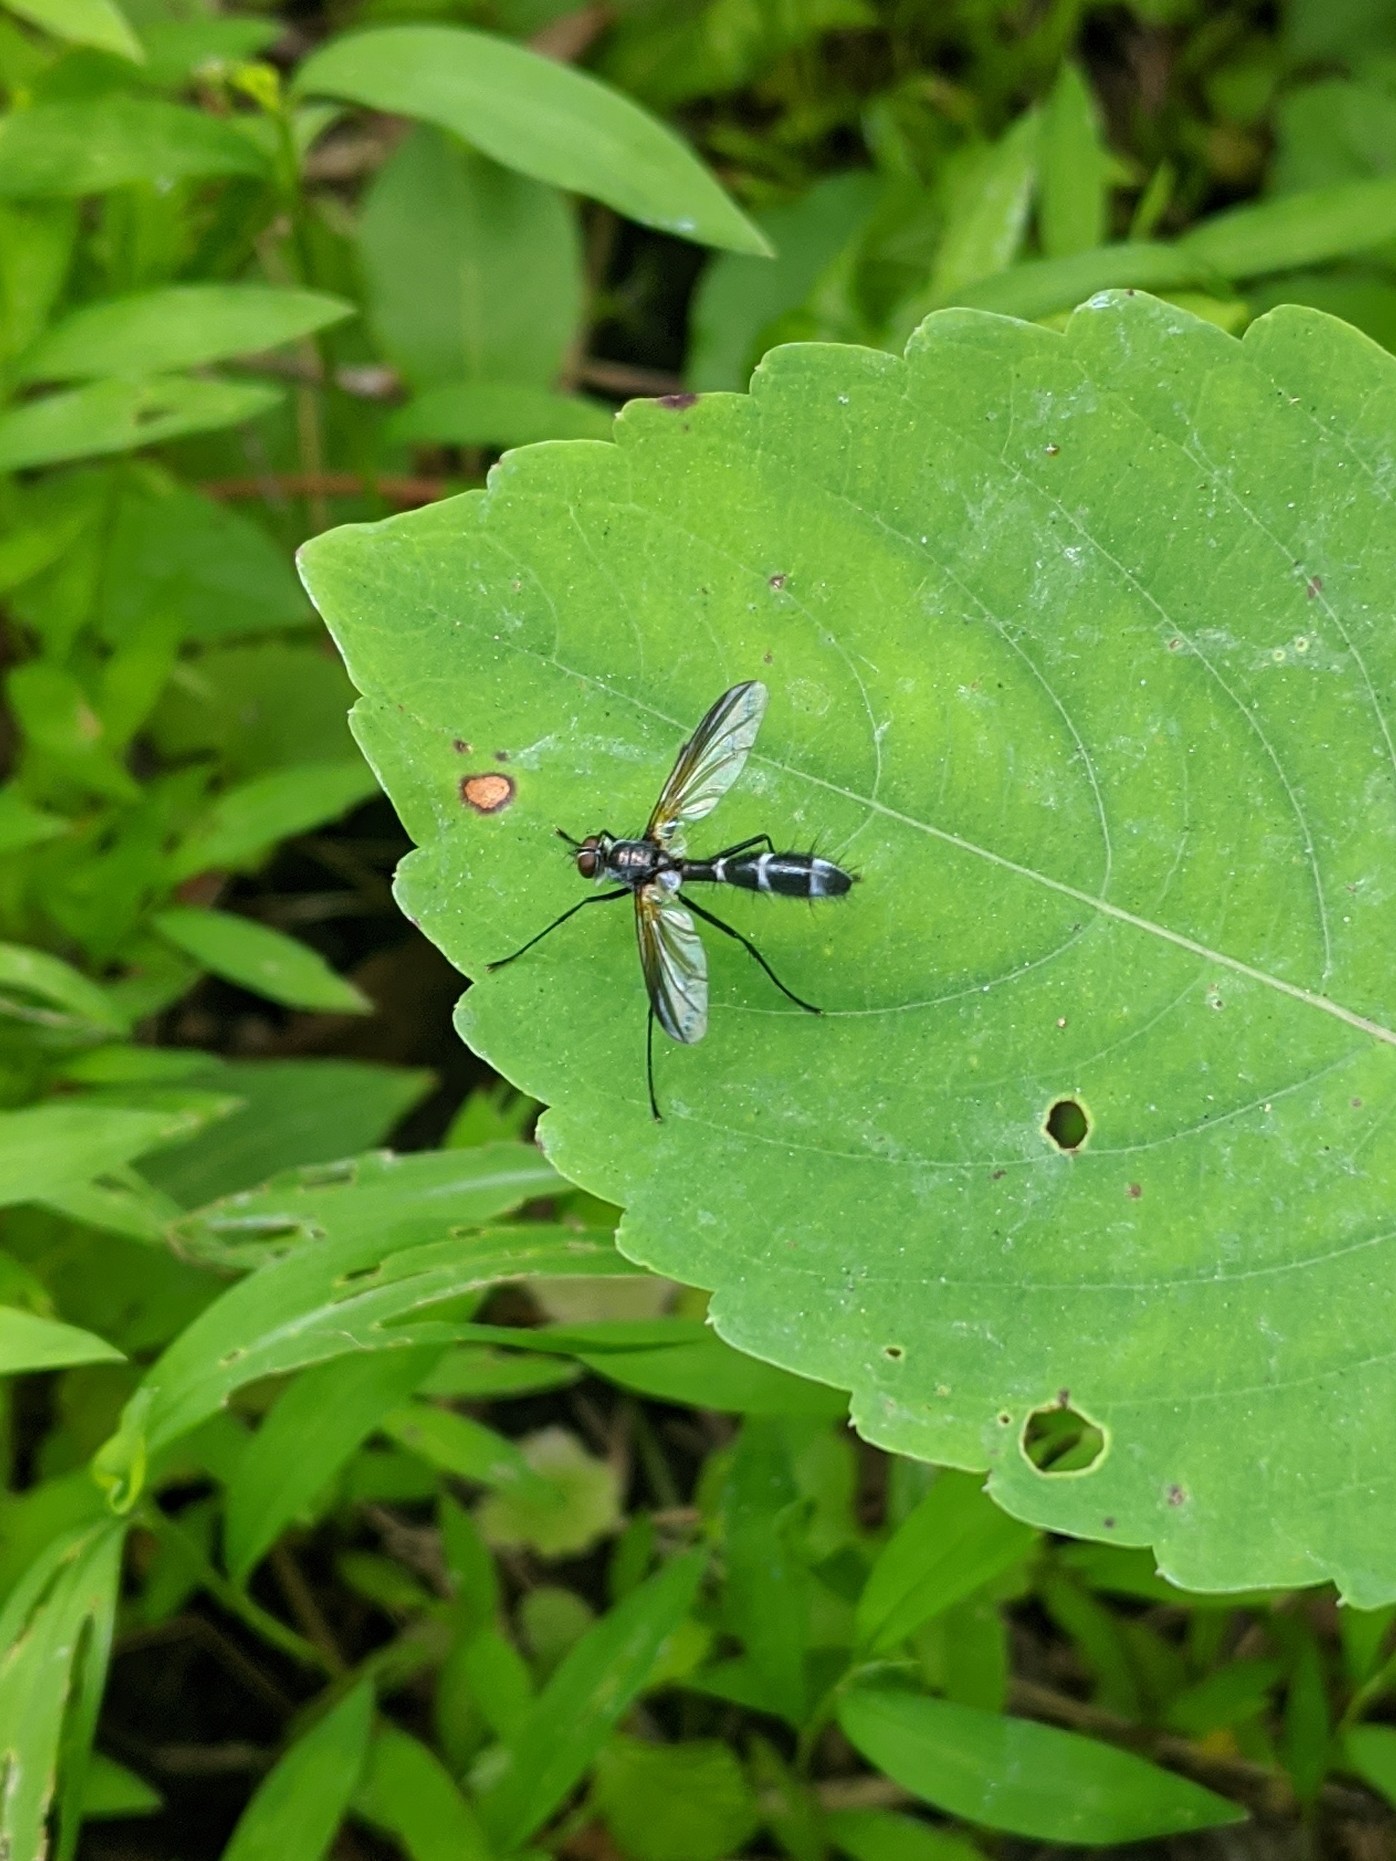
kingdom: Animalia
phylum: Arthropoda
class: Insecta
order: Diptera
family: Tachinidae
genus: Cordyligaster
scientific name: Cordyligaster septentrionalis
